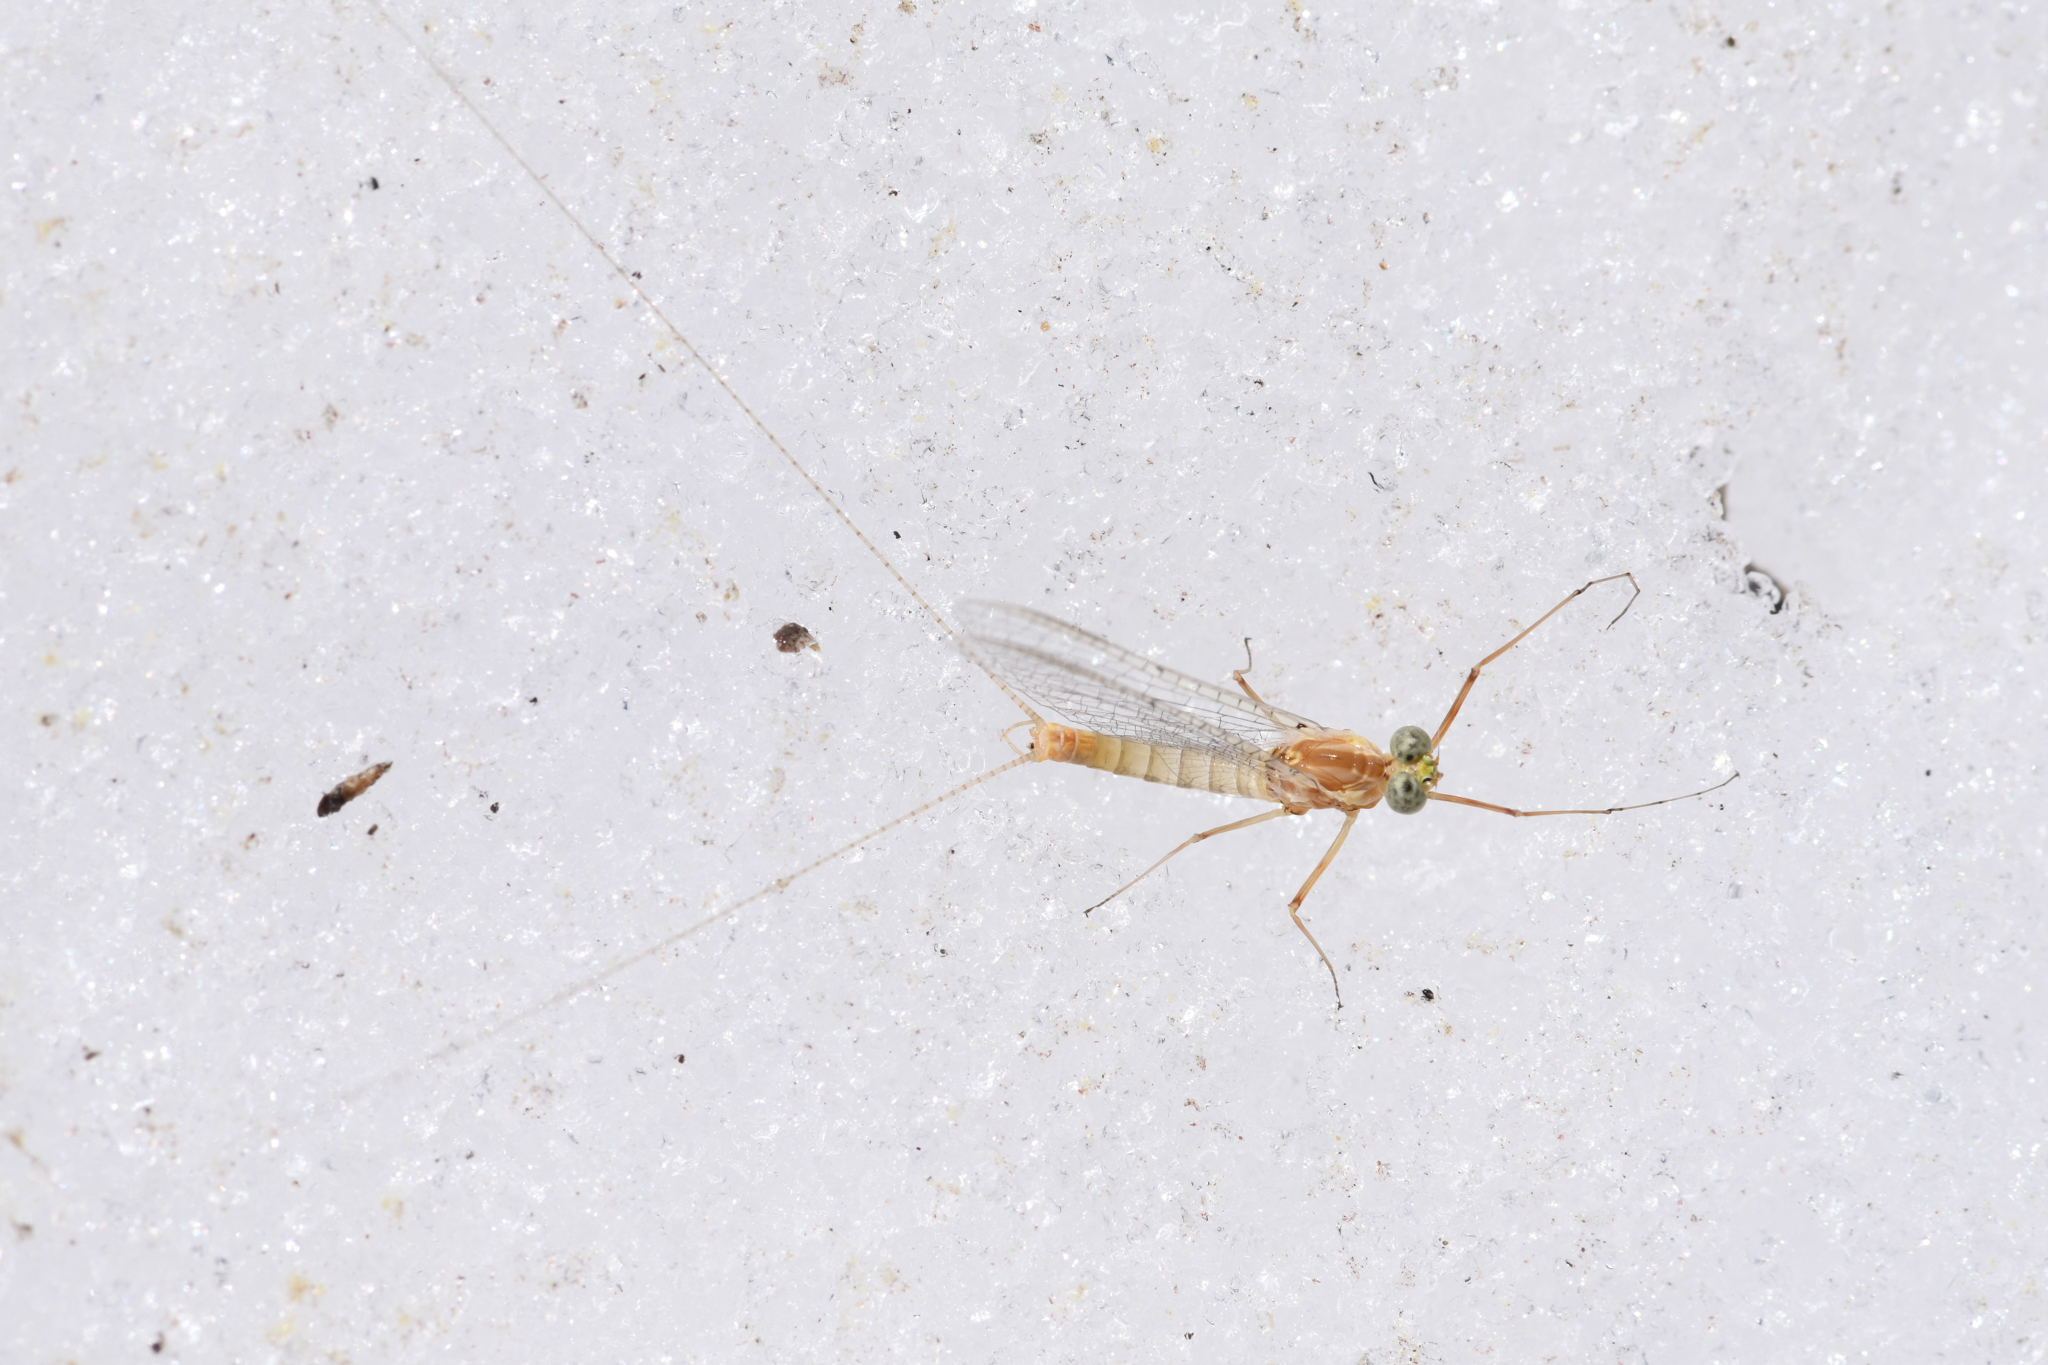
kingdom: Animalia
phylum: Arthropoda
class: Insecta
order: Ephemeroptera
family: Heptageniidae
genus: Heptagenia
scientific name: Heptagenia elegantula
